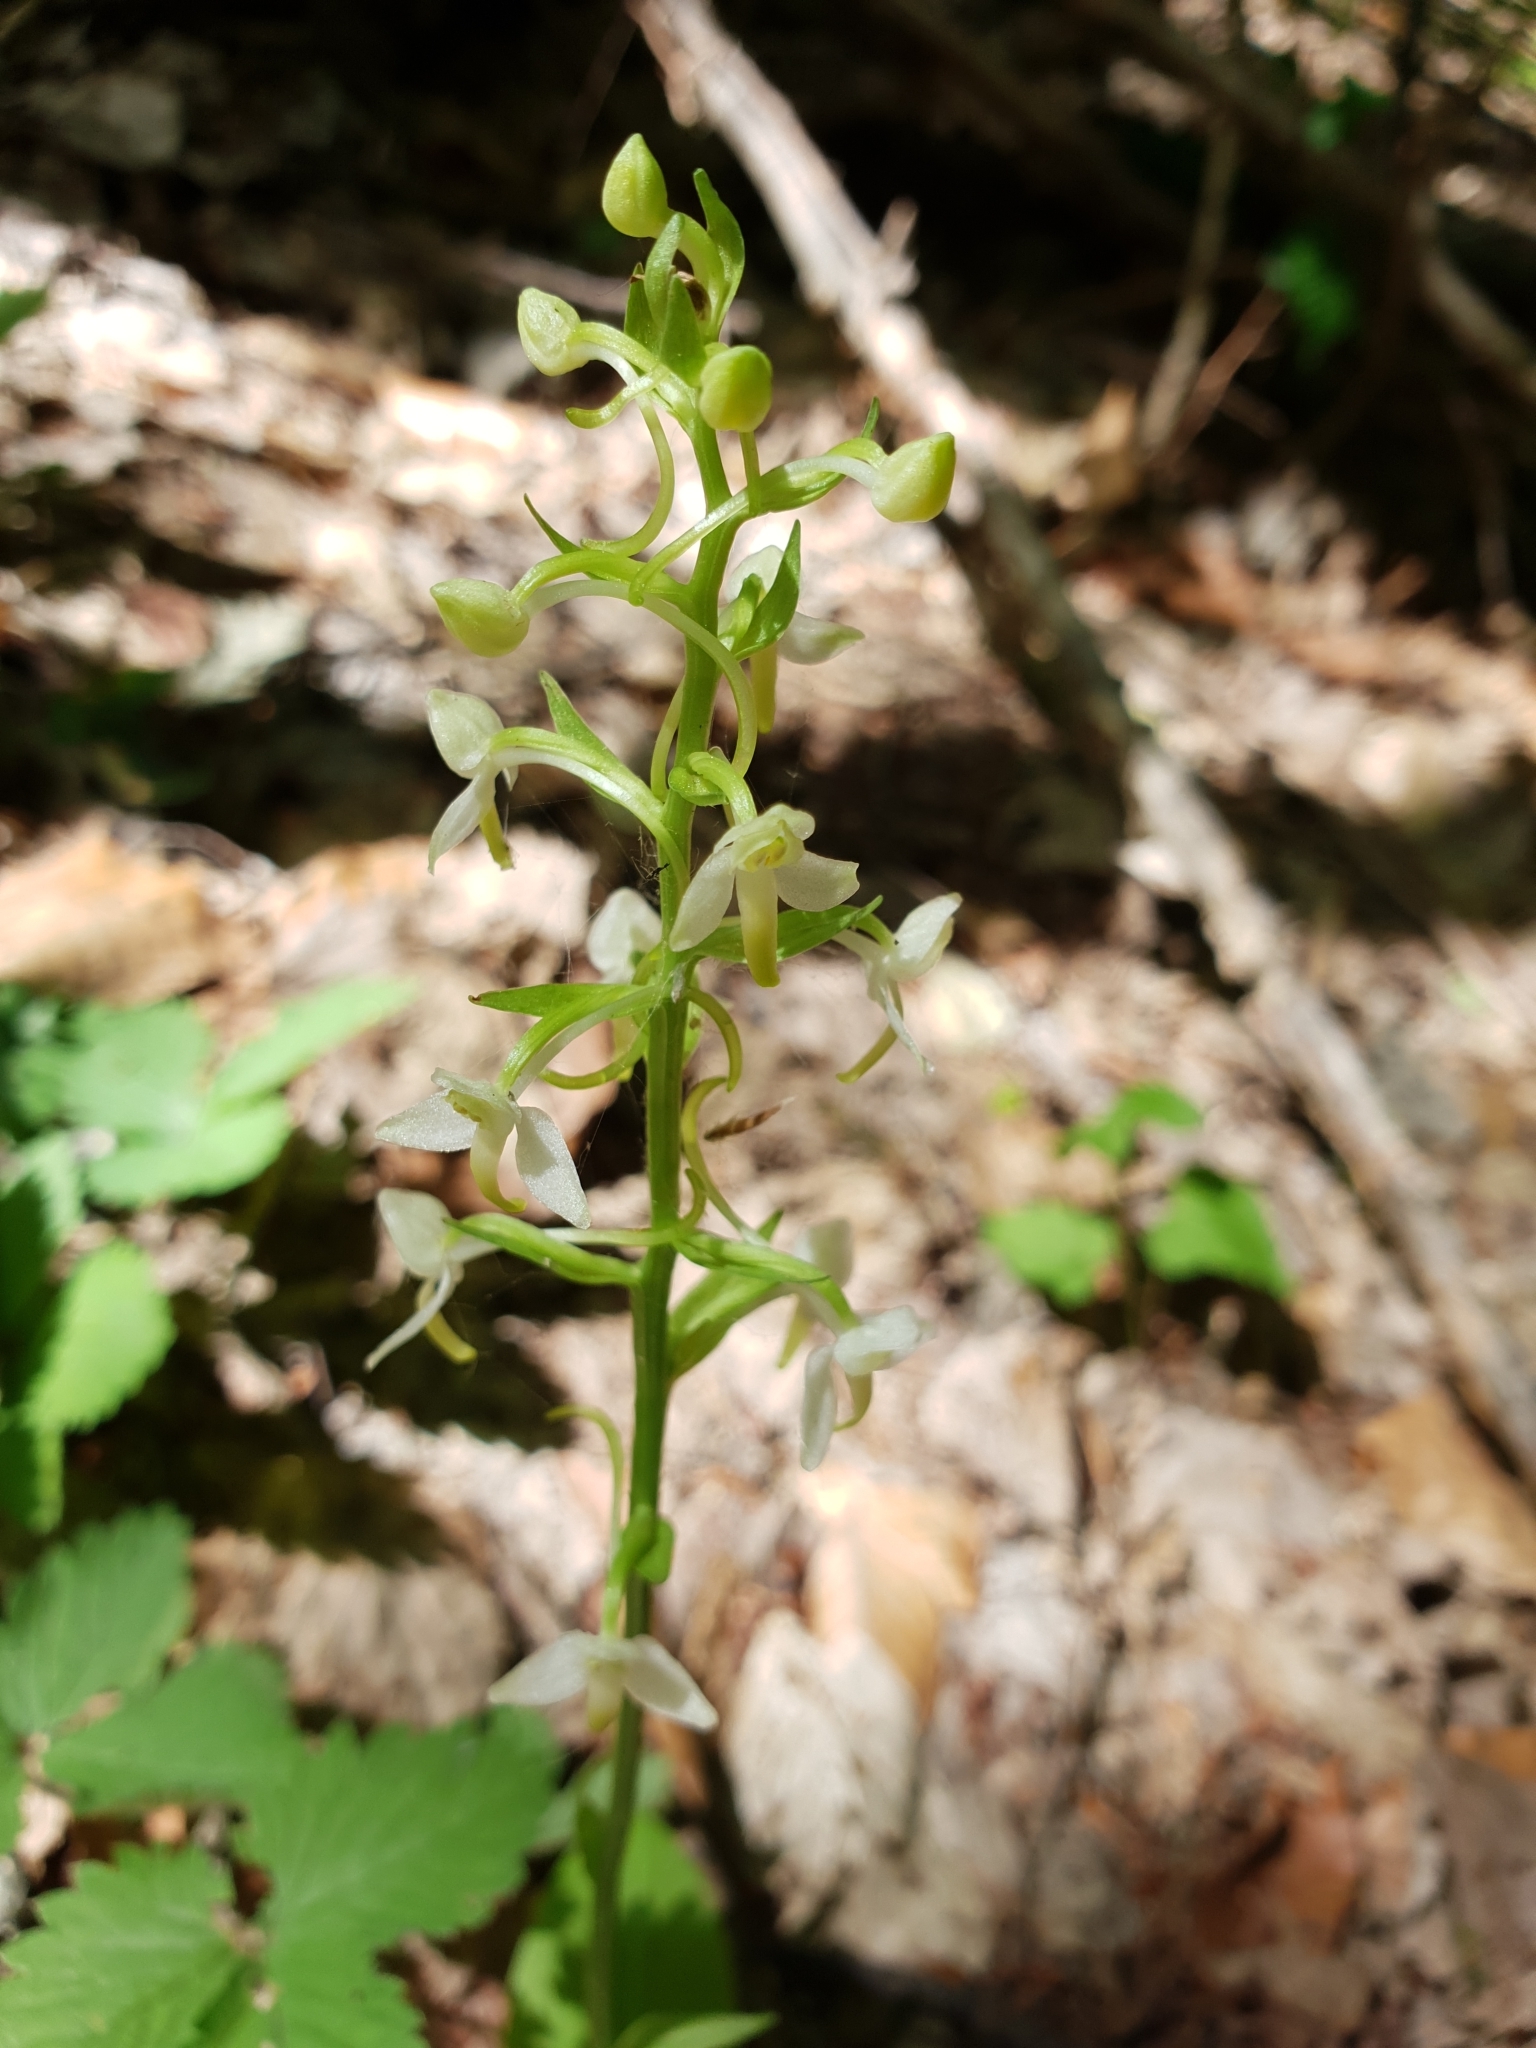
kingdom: Plantae
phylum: Tracheophyta
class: Liliopsida
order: Asparagales
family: Orchidaceae
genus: Platanthera
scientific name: Platanthera bifolia
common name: Lesser butterfly-orchid
